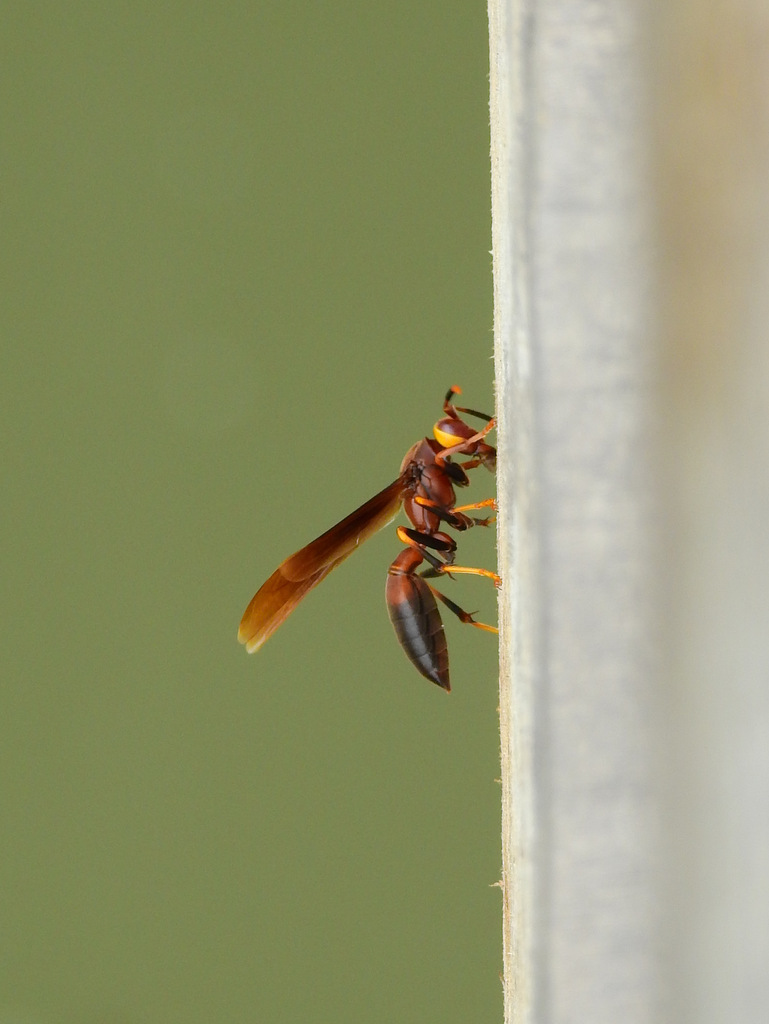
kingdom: Animalia
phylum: Arthropoda
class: Insecta
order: Hymenoptera
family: Eumenidae
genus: Polistes
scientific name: Polistes infuscatus
